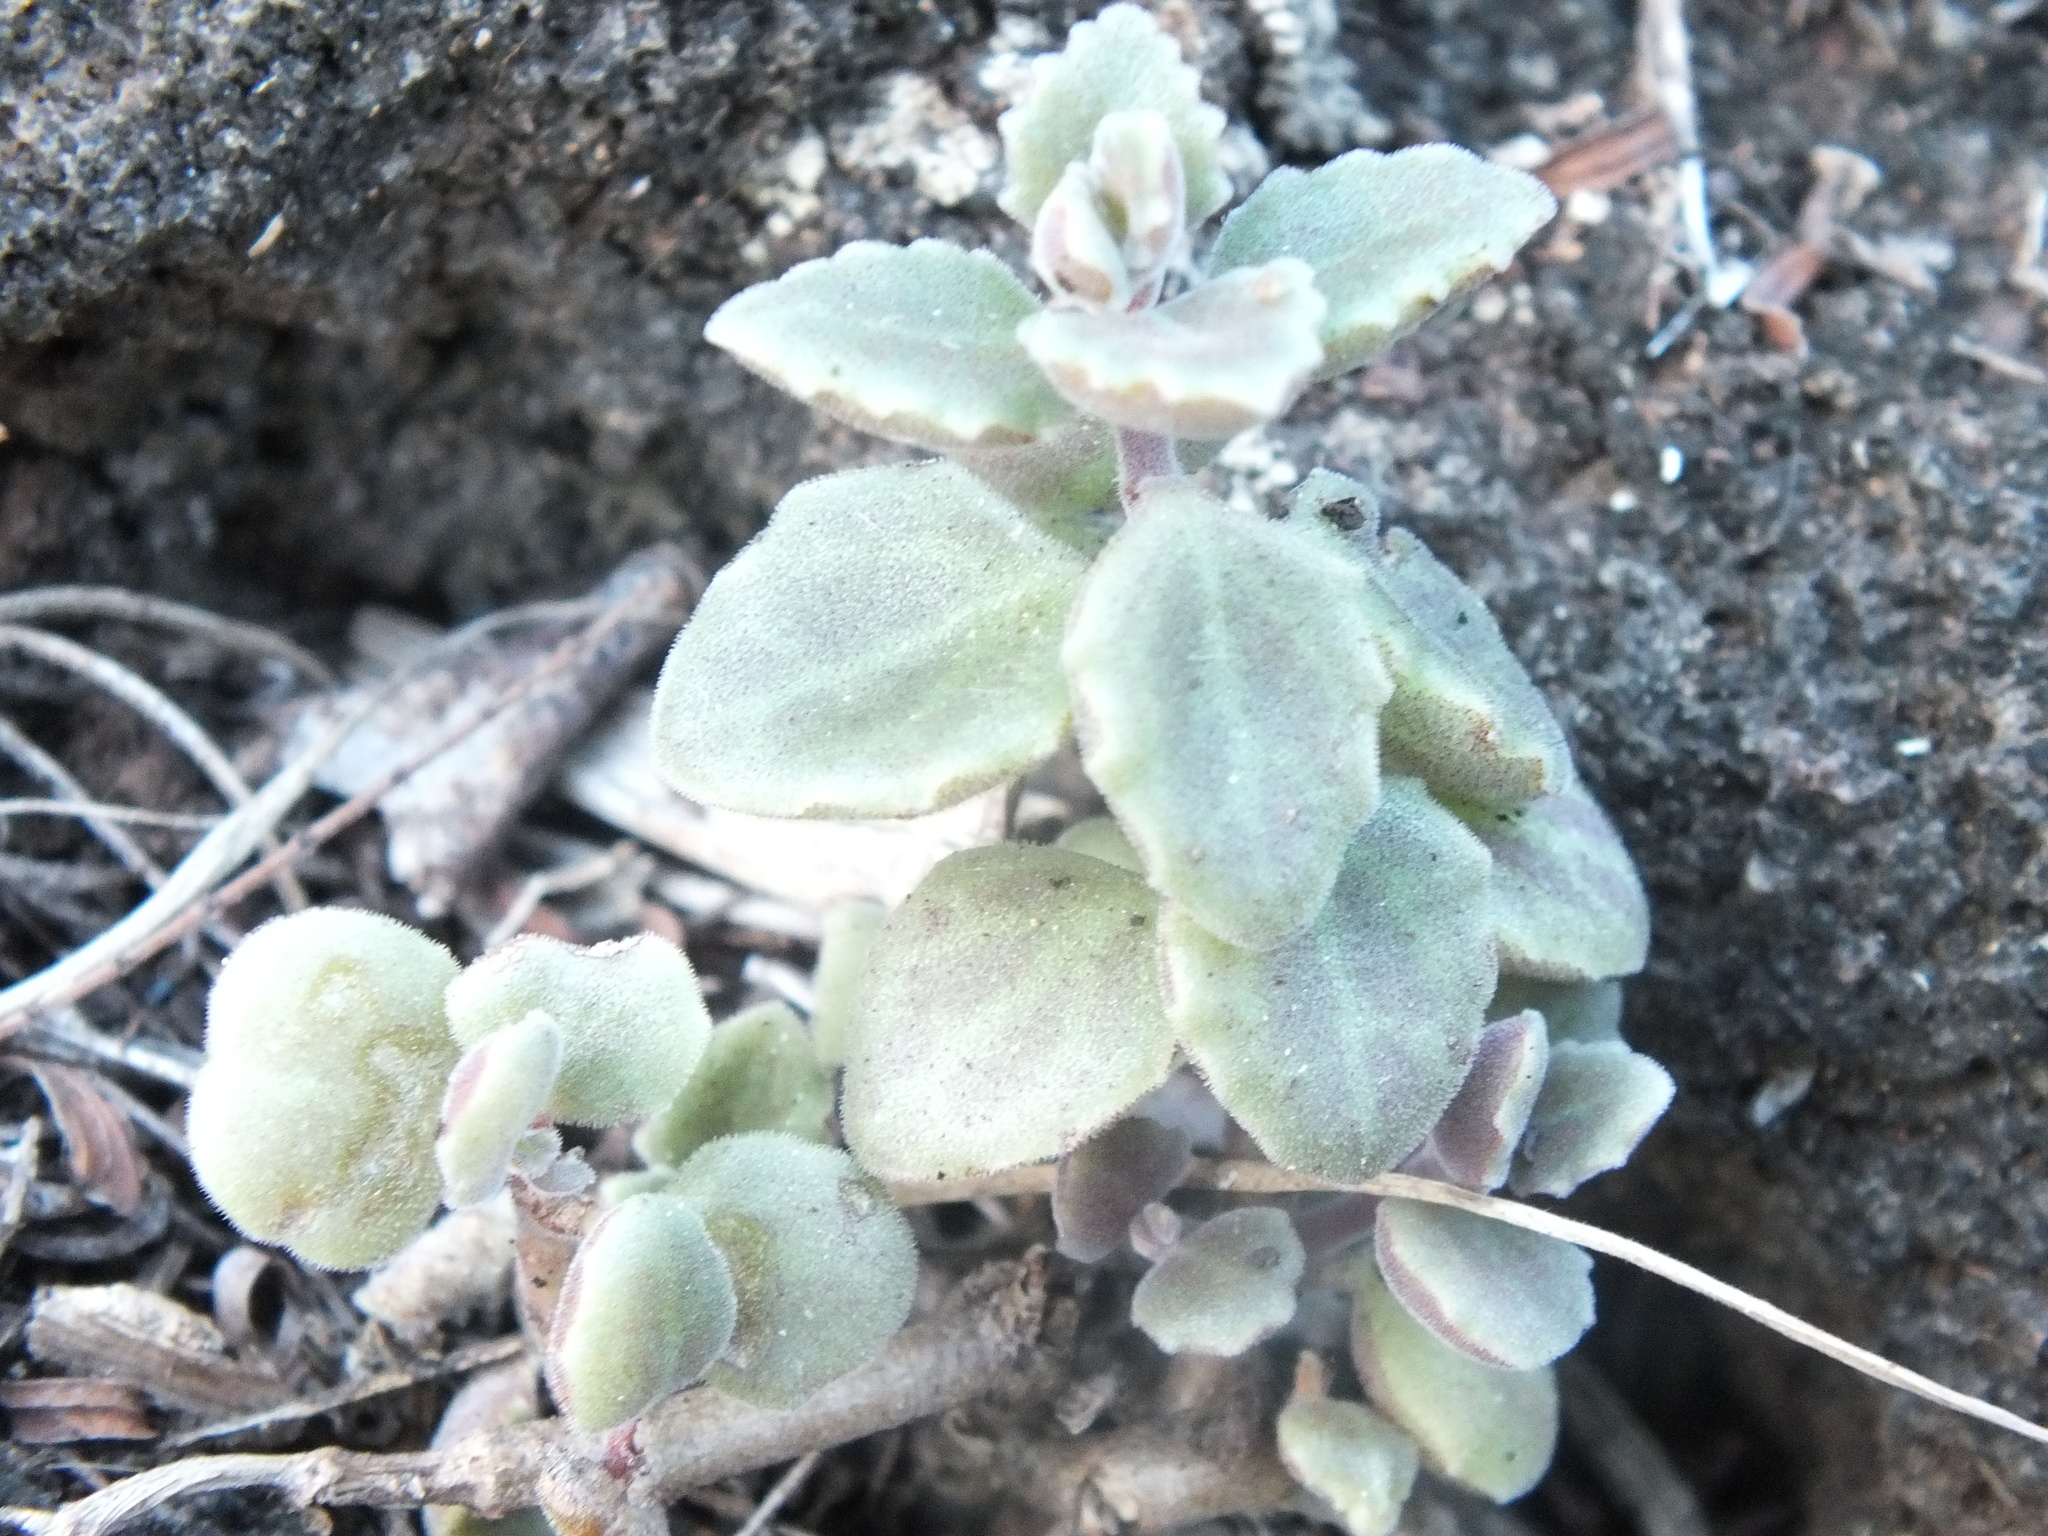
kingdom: Plantae
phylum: Tracheophyta
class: Magnoliopsida
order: Lamiales
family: Lamiaceae
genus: Coleus
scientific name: Coleus prostratus
